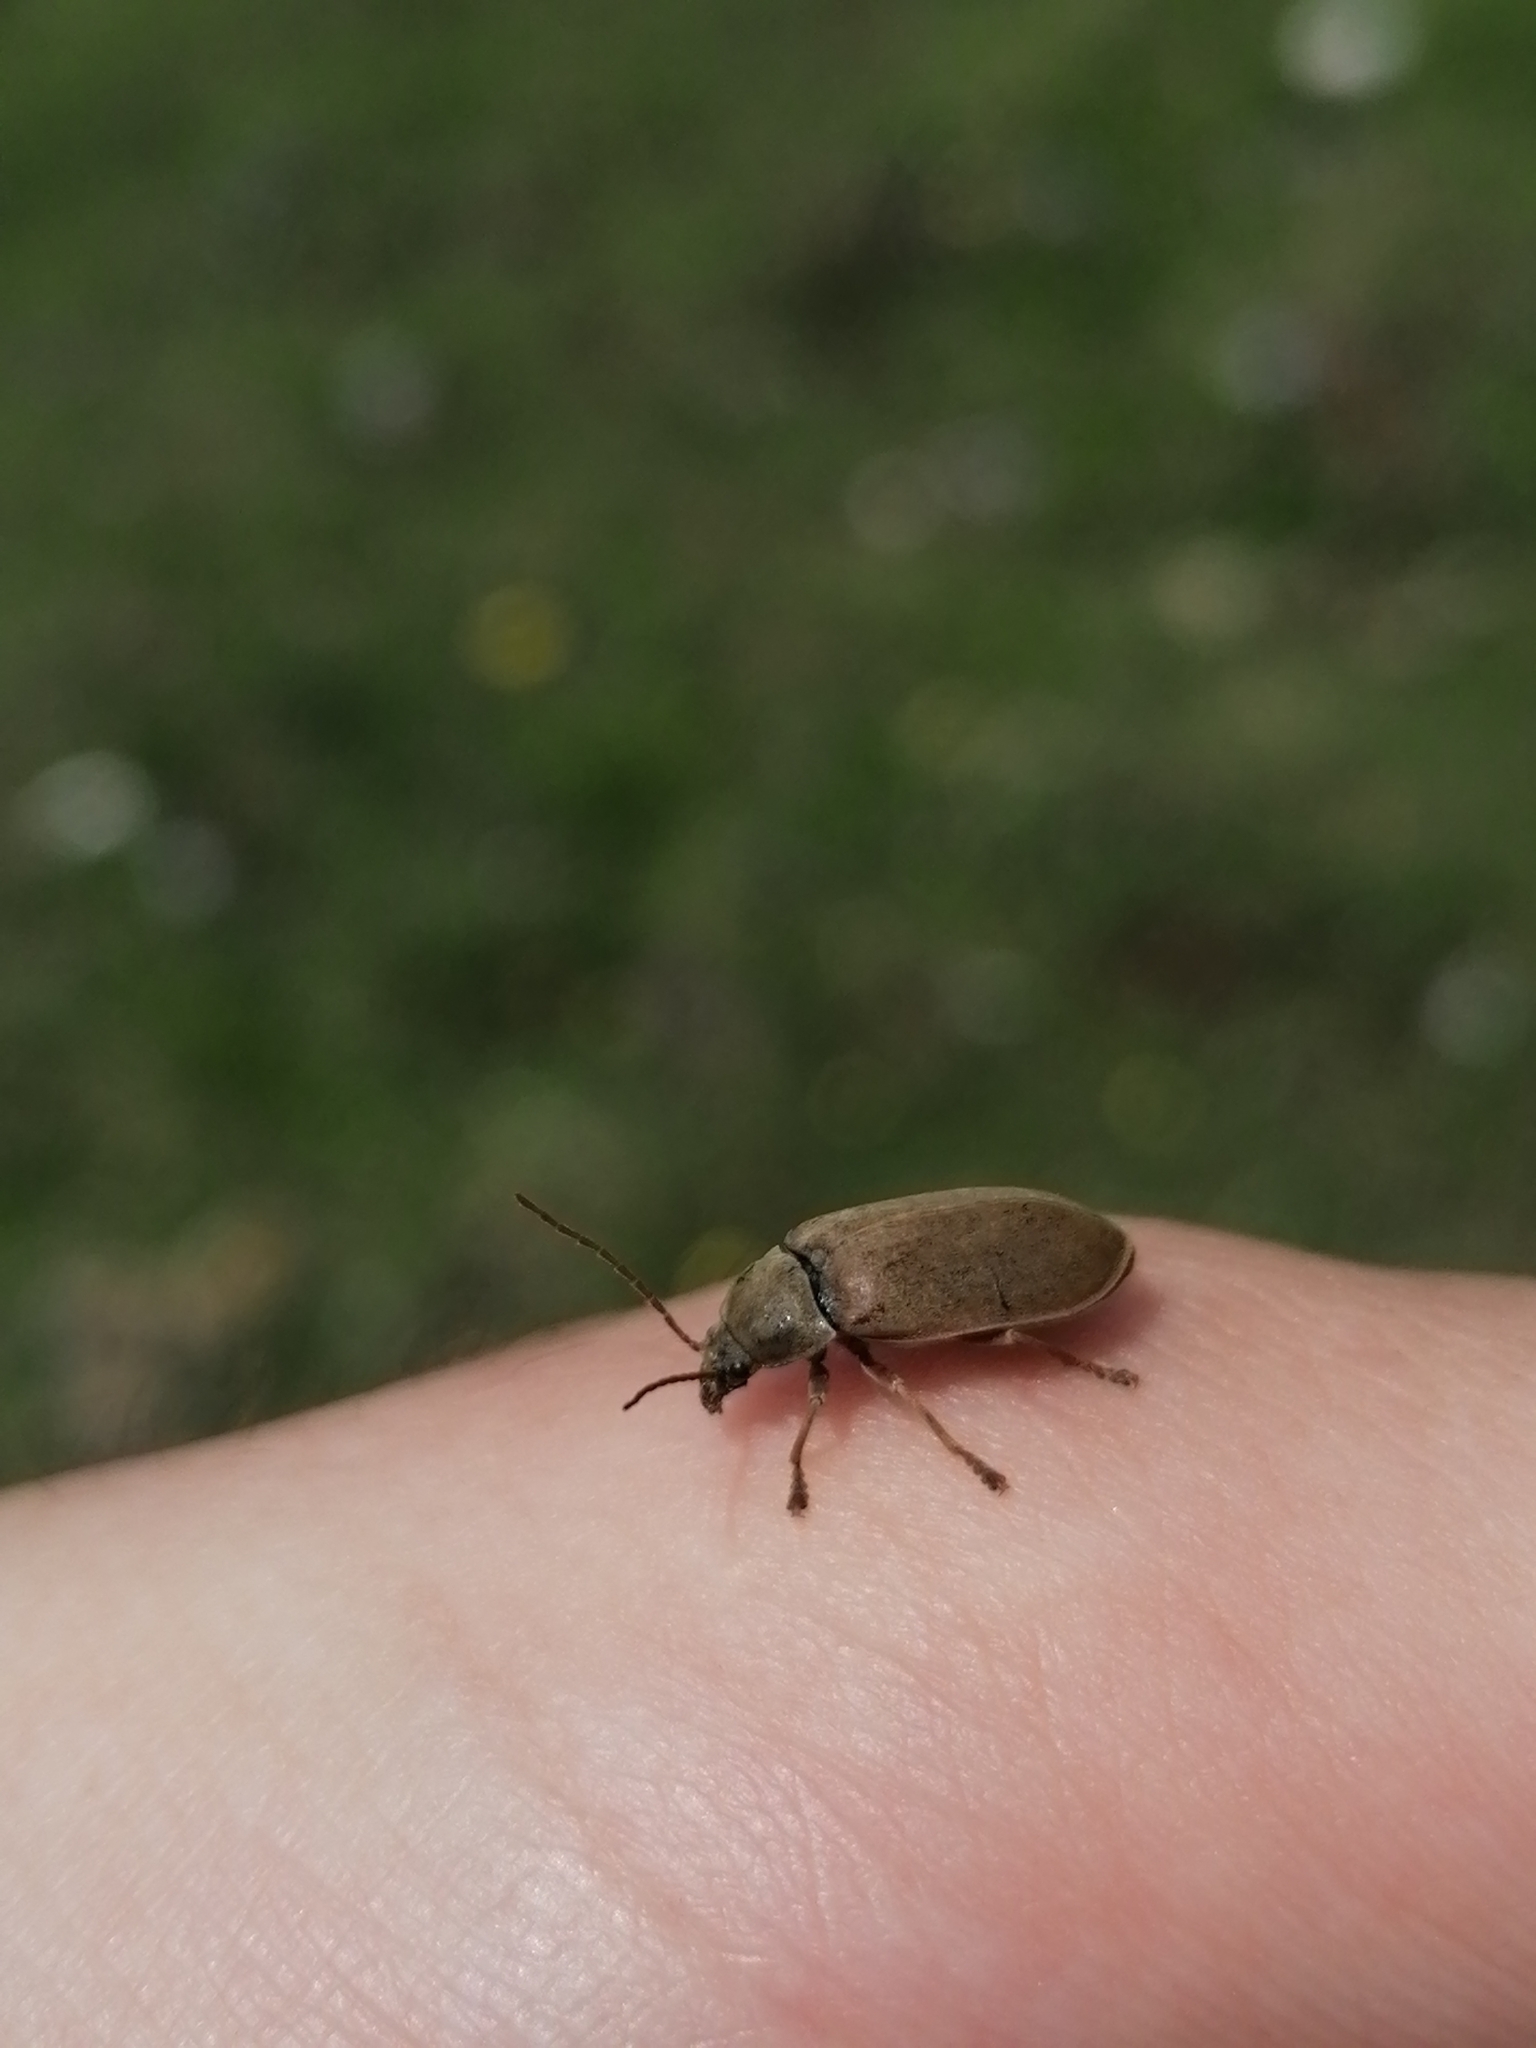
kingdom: Animalia
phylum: Arthropoda
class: Insecta
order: Coleoptera
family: Dascillidae
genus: Dascillus
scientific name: Dascillus cervinus
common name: Orchid beetle
